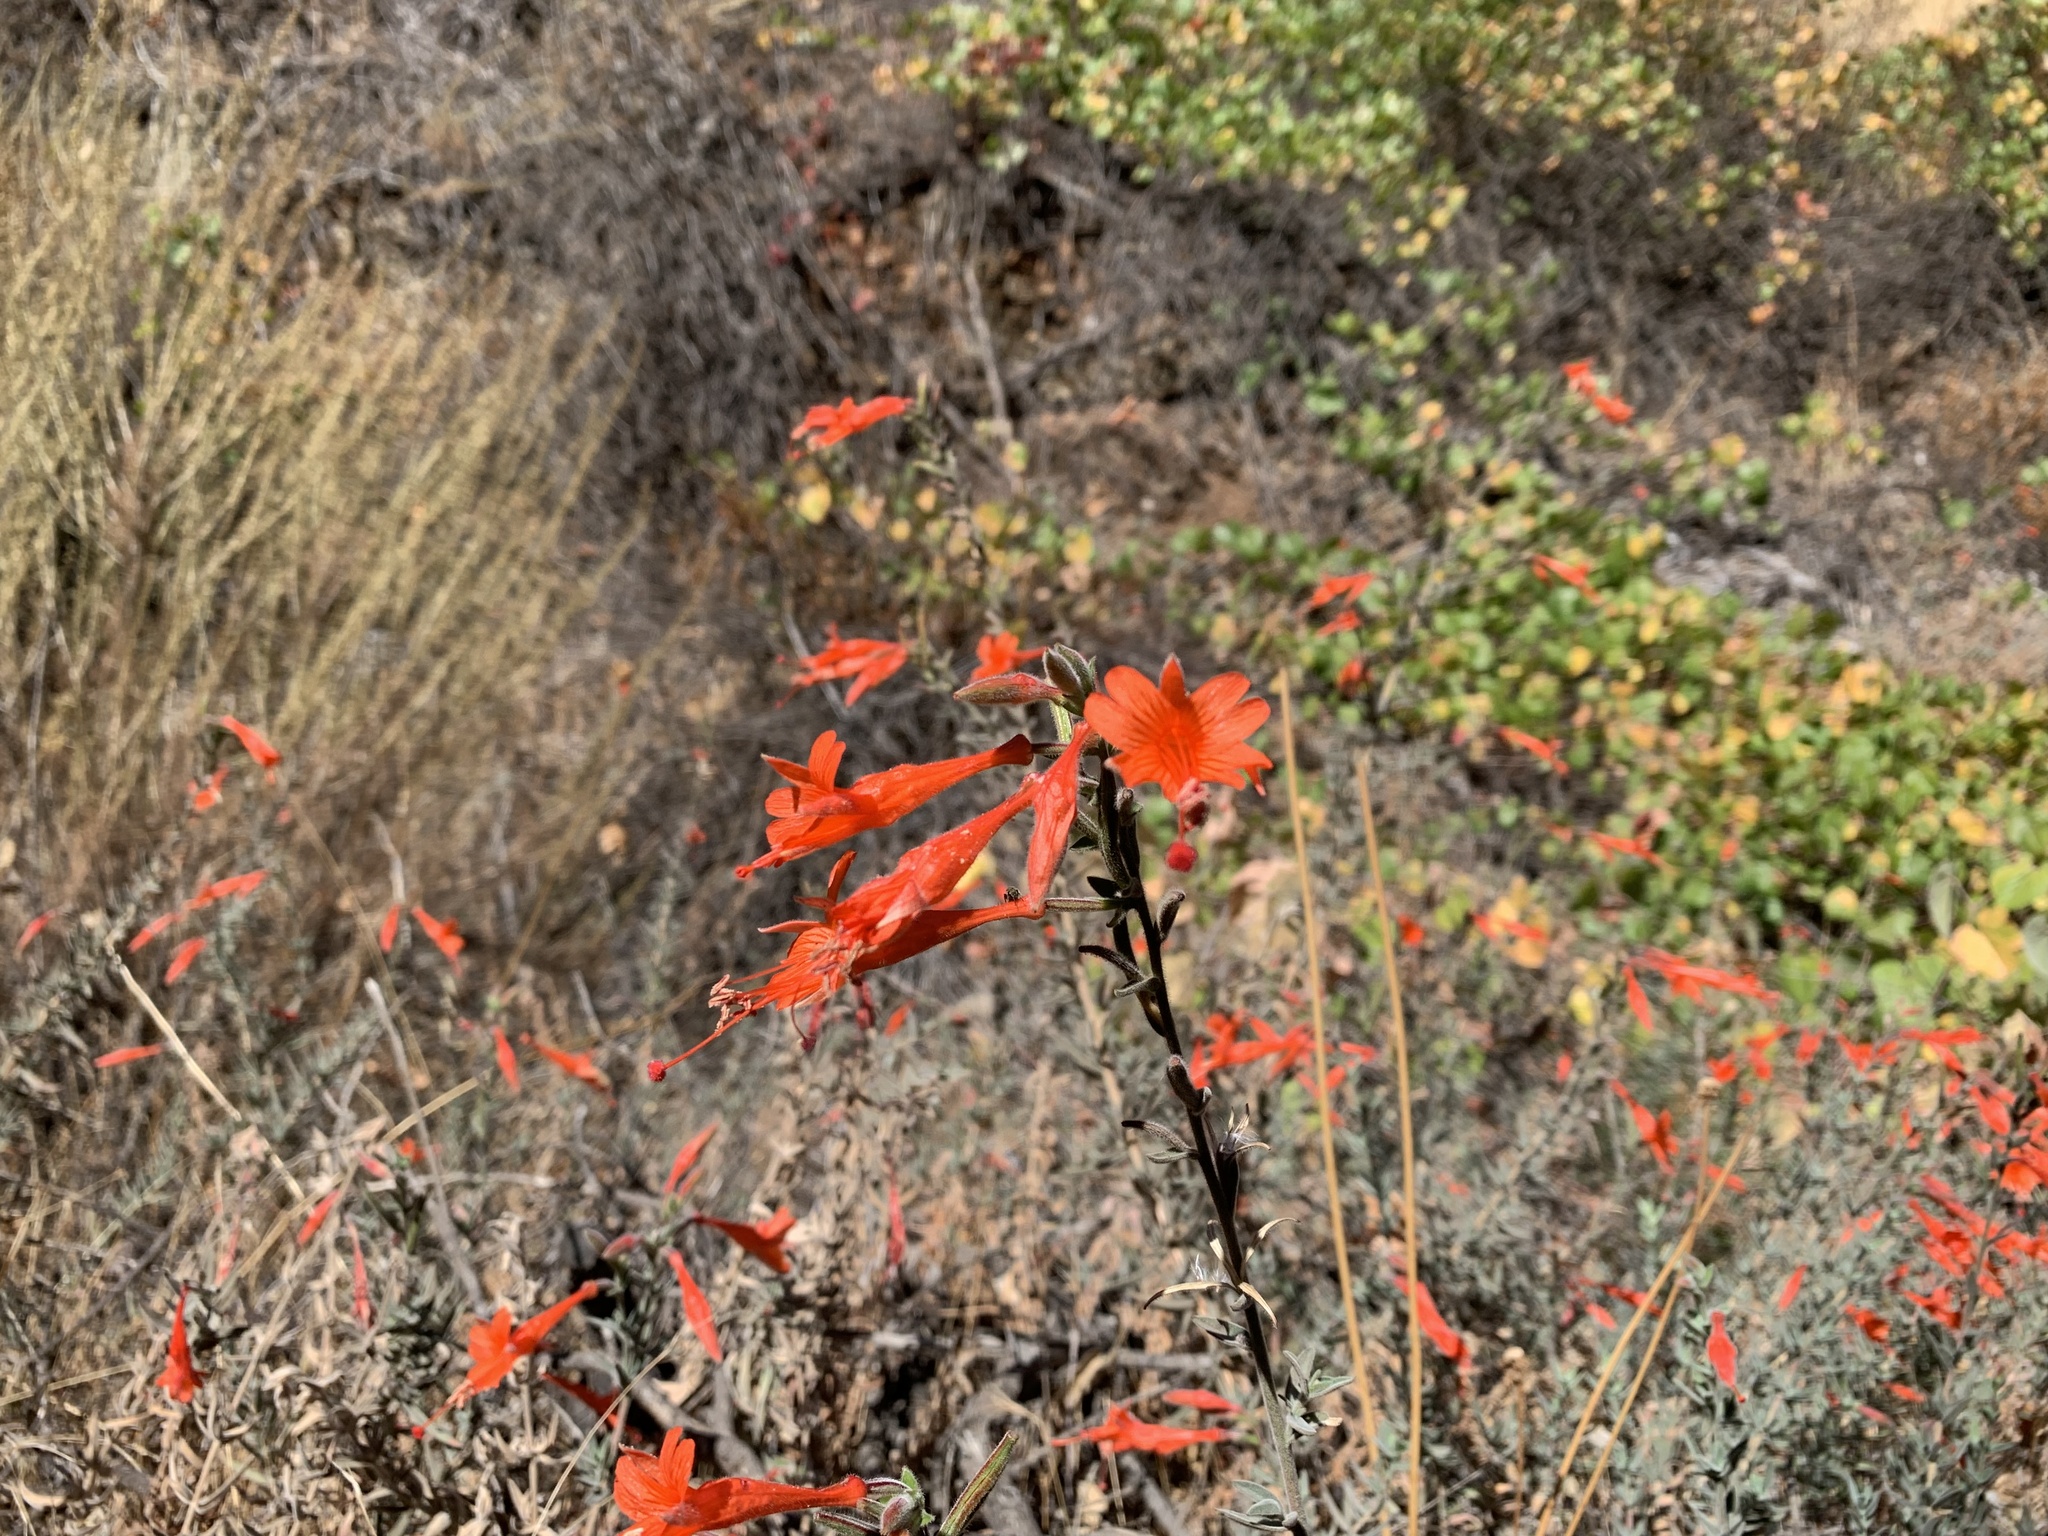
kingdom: Plantae
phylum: Tracheophyta
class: Magnoliopsida
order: Myrtales
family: Onagraceae
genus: Epilobium
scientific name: Epilobium canum
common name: California-fuchsia
